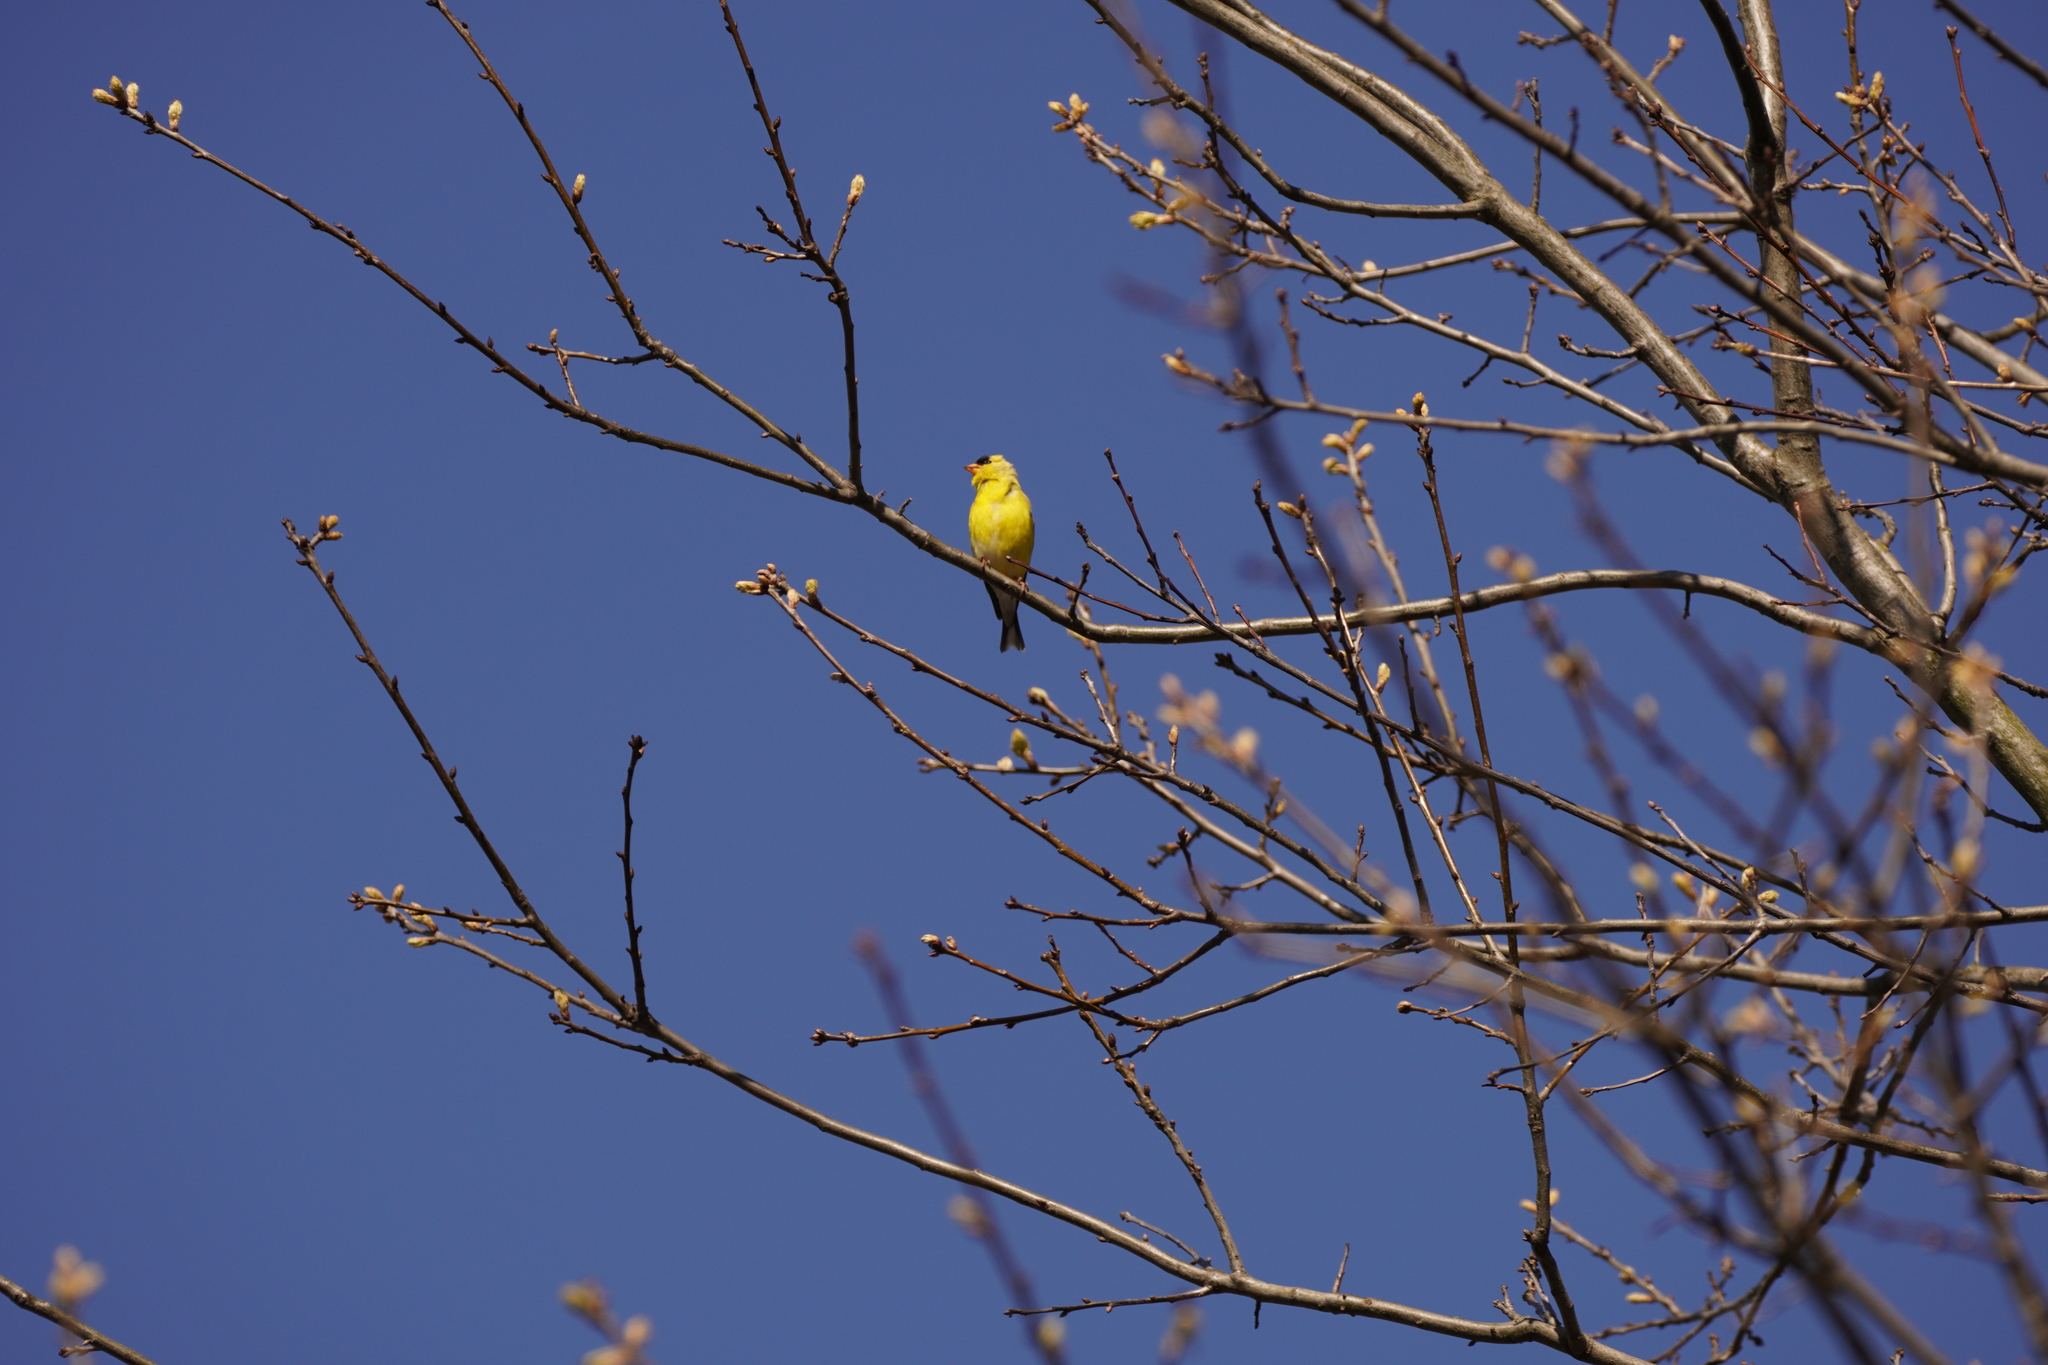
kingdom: Animalia
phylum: Chordata
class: Aves
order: Passeriformes
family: Fringillidae
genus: Spinus
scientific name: Spinus tristis
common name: American goldfinch
